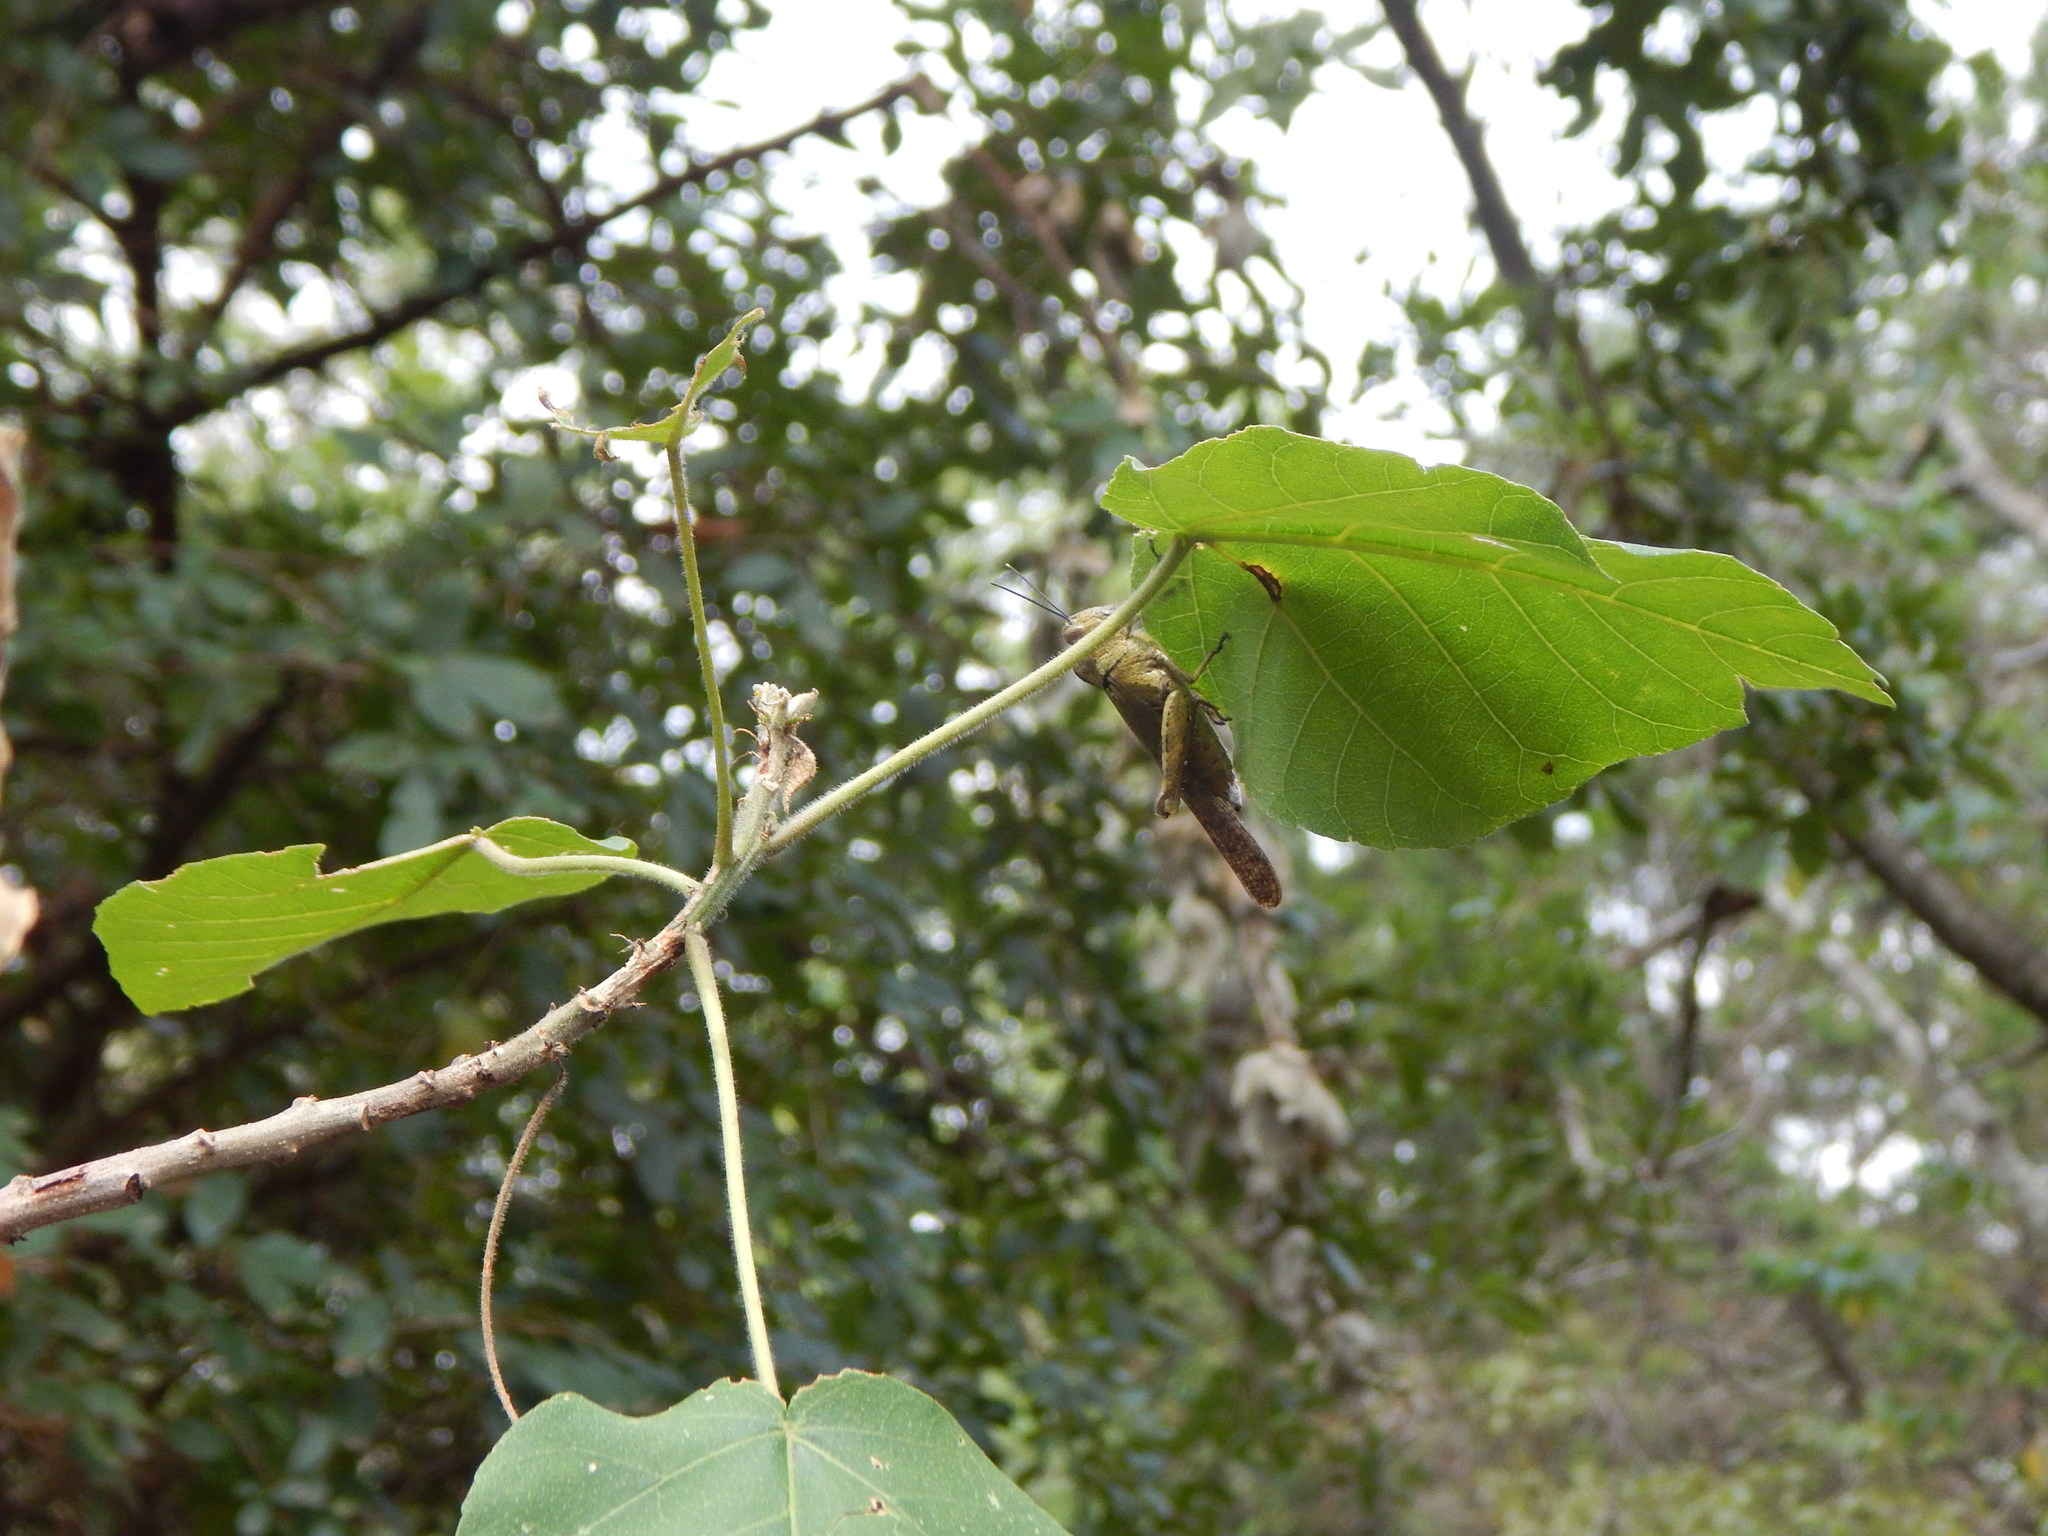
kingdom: Animalia
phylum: Arthropoda
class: Insecta
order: Orthoptera
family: Acrididae
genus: Abisares
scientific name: Abisares viridipenne
